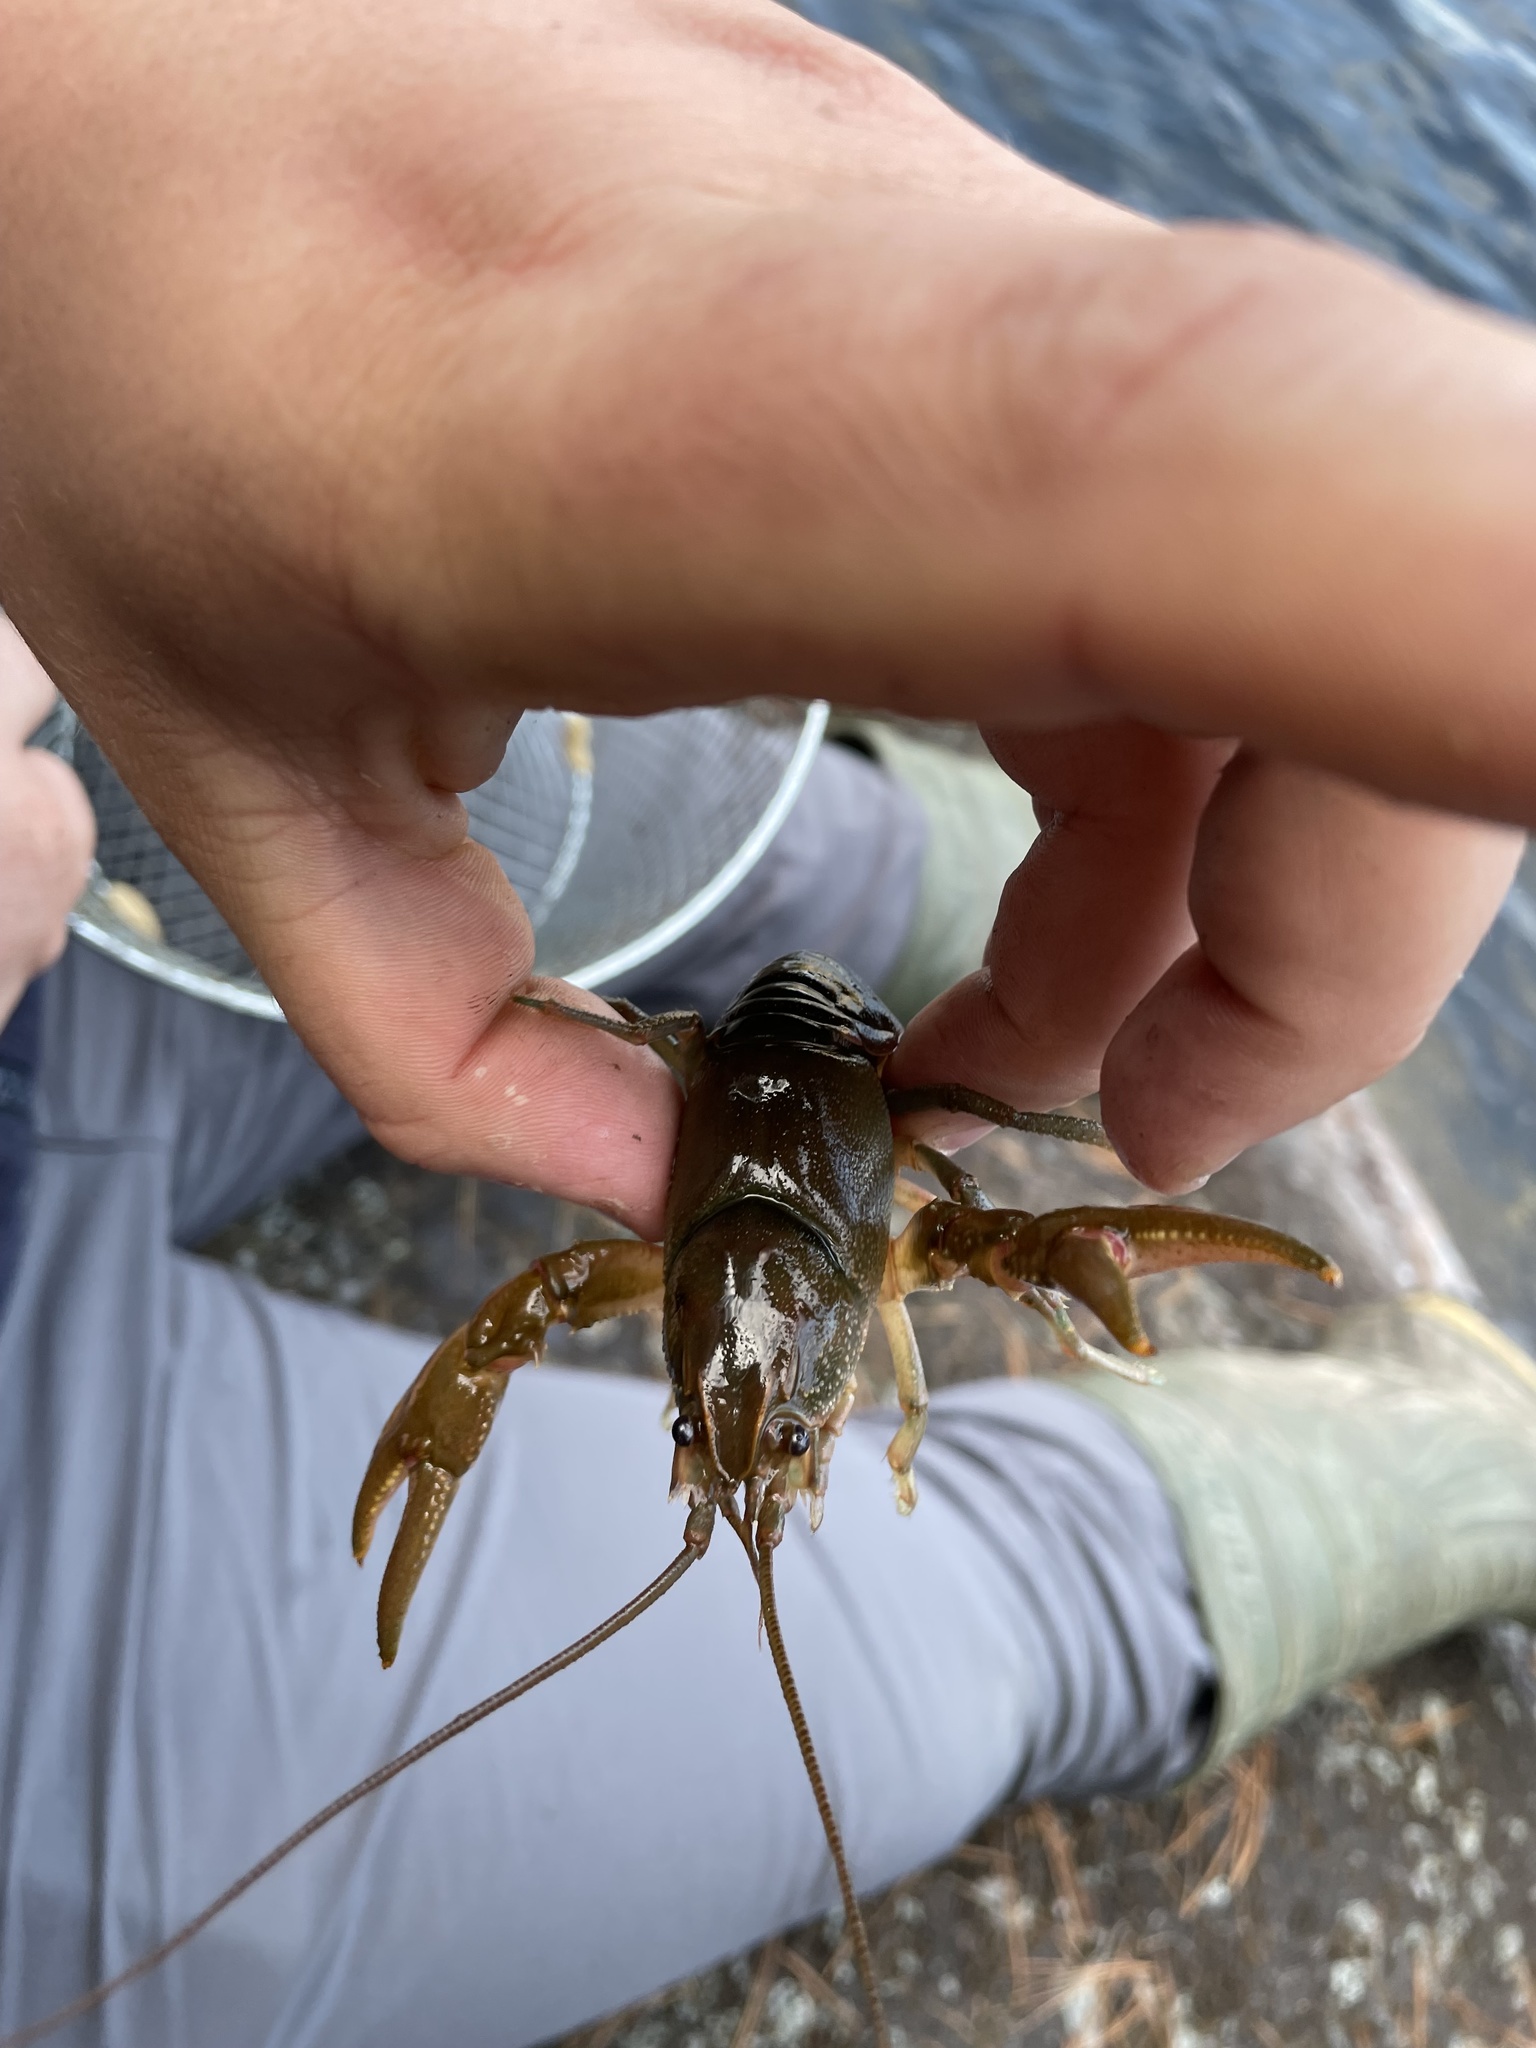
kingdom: Animalia
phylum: Arthropoda
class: Malacostraca
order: Decapoda
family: Cambaridae
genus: Cambarus
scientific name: Cambarus robustus
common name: Big water crayfish
